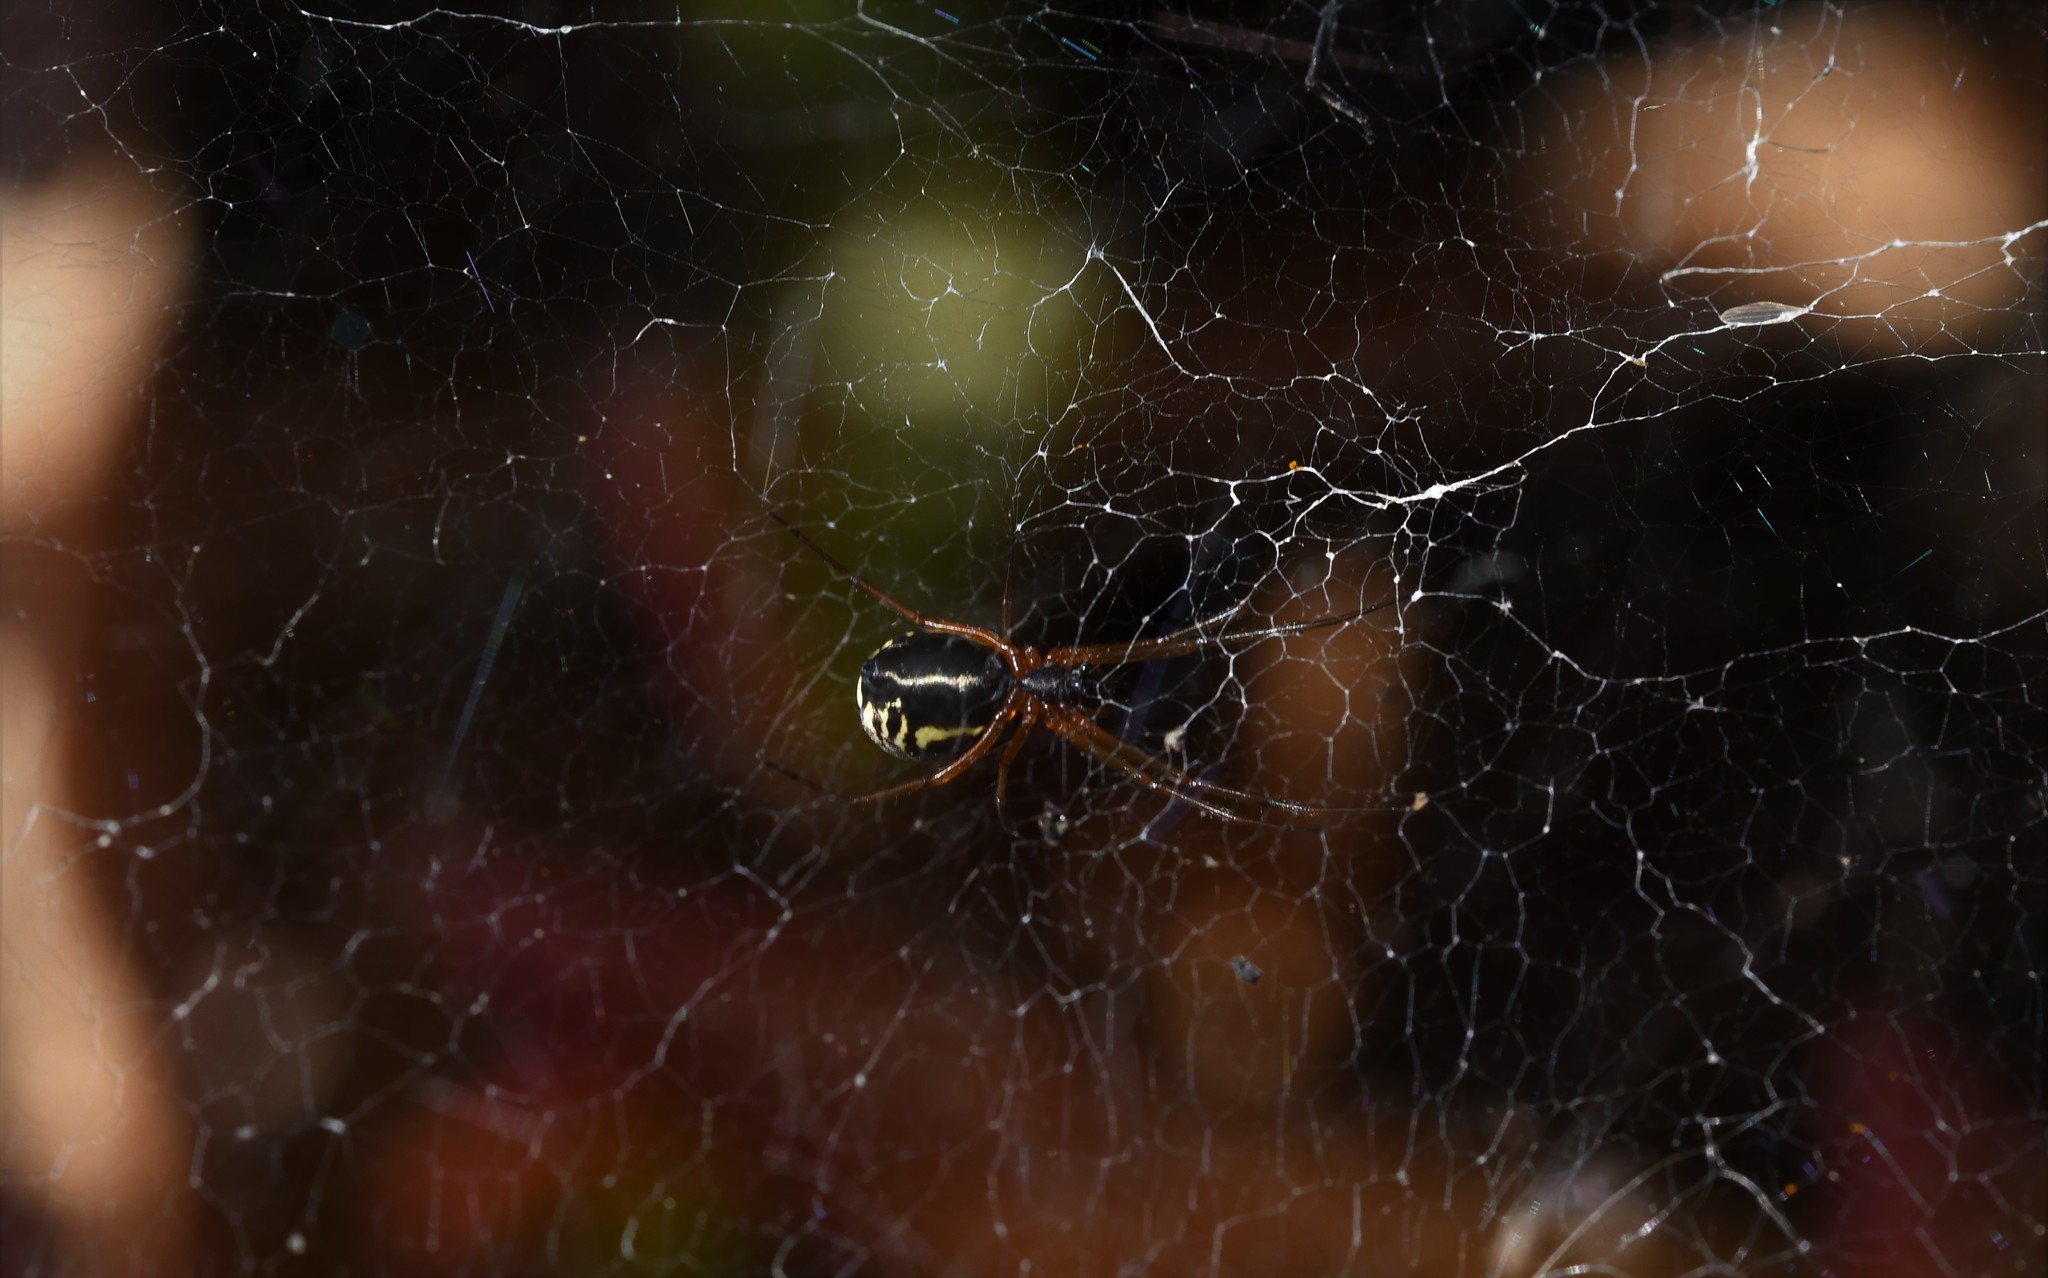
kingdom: Animalia
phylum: Arthropoda
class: Arachnida
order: Araneae
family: Linyphiidae
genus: Frontinellina
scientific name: Frontinellina frutetorum
